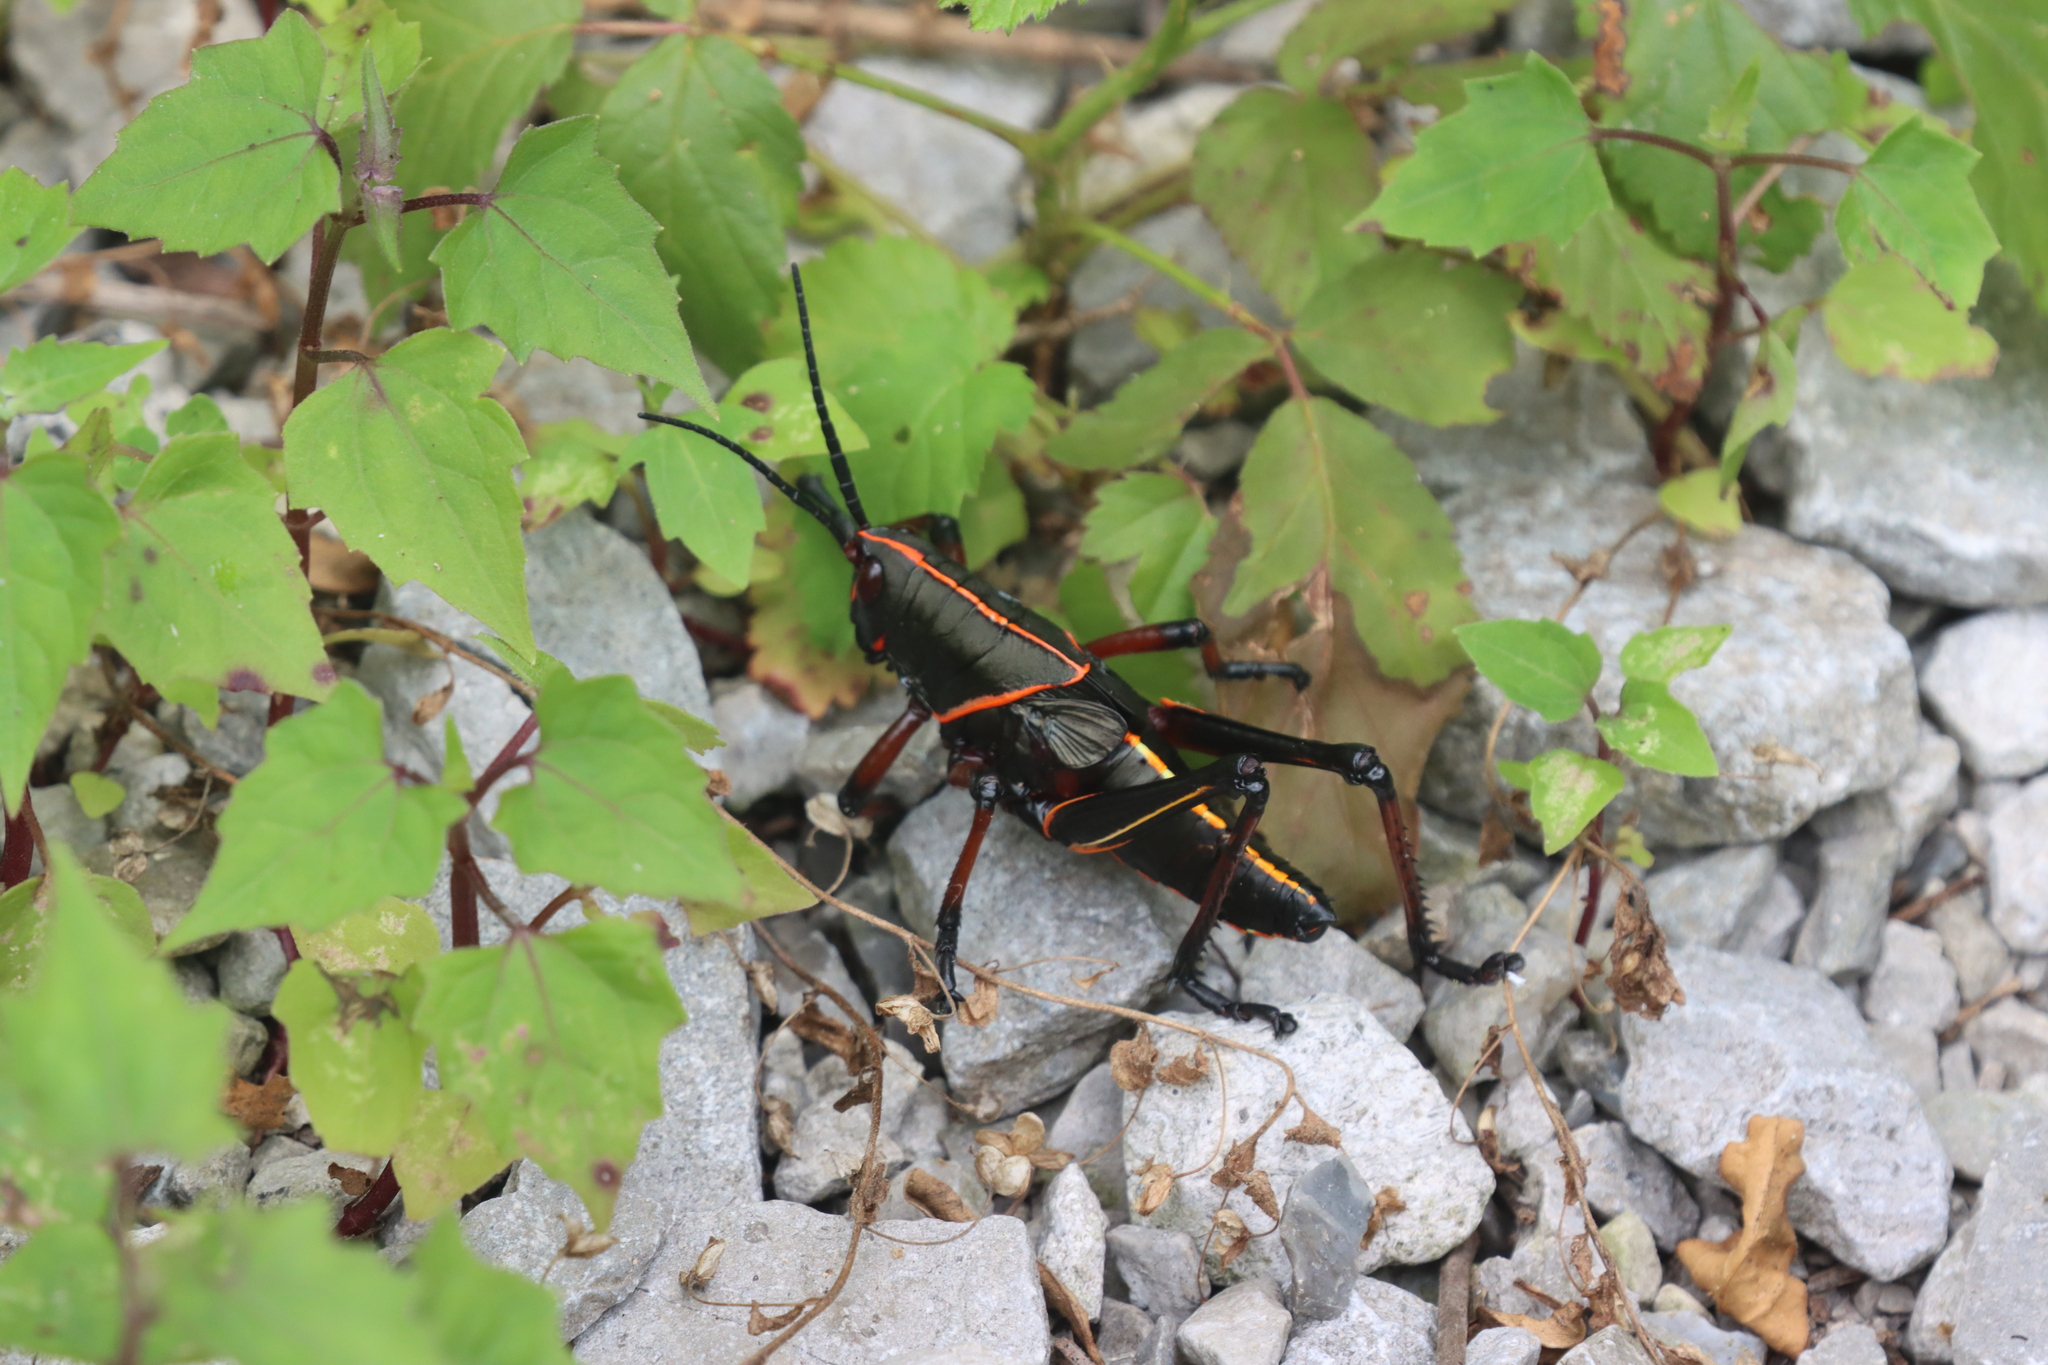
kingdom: Animalia
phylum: Arthropoda
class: Insecta
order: Orthoptera
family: Romaleidae
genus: Romalea
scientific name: Romalea microptera
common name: Eastern lubber grasshopper
